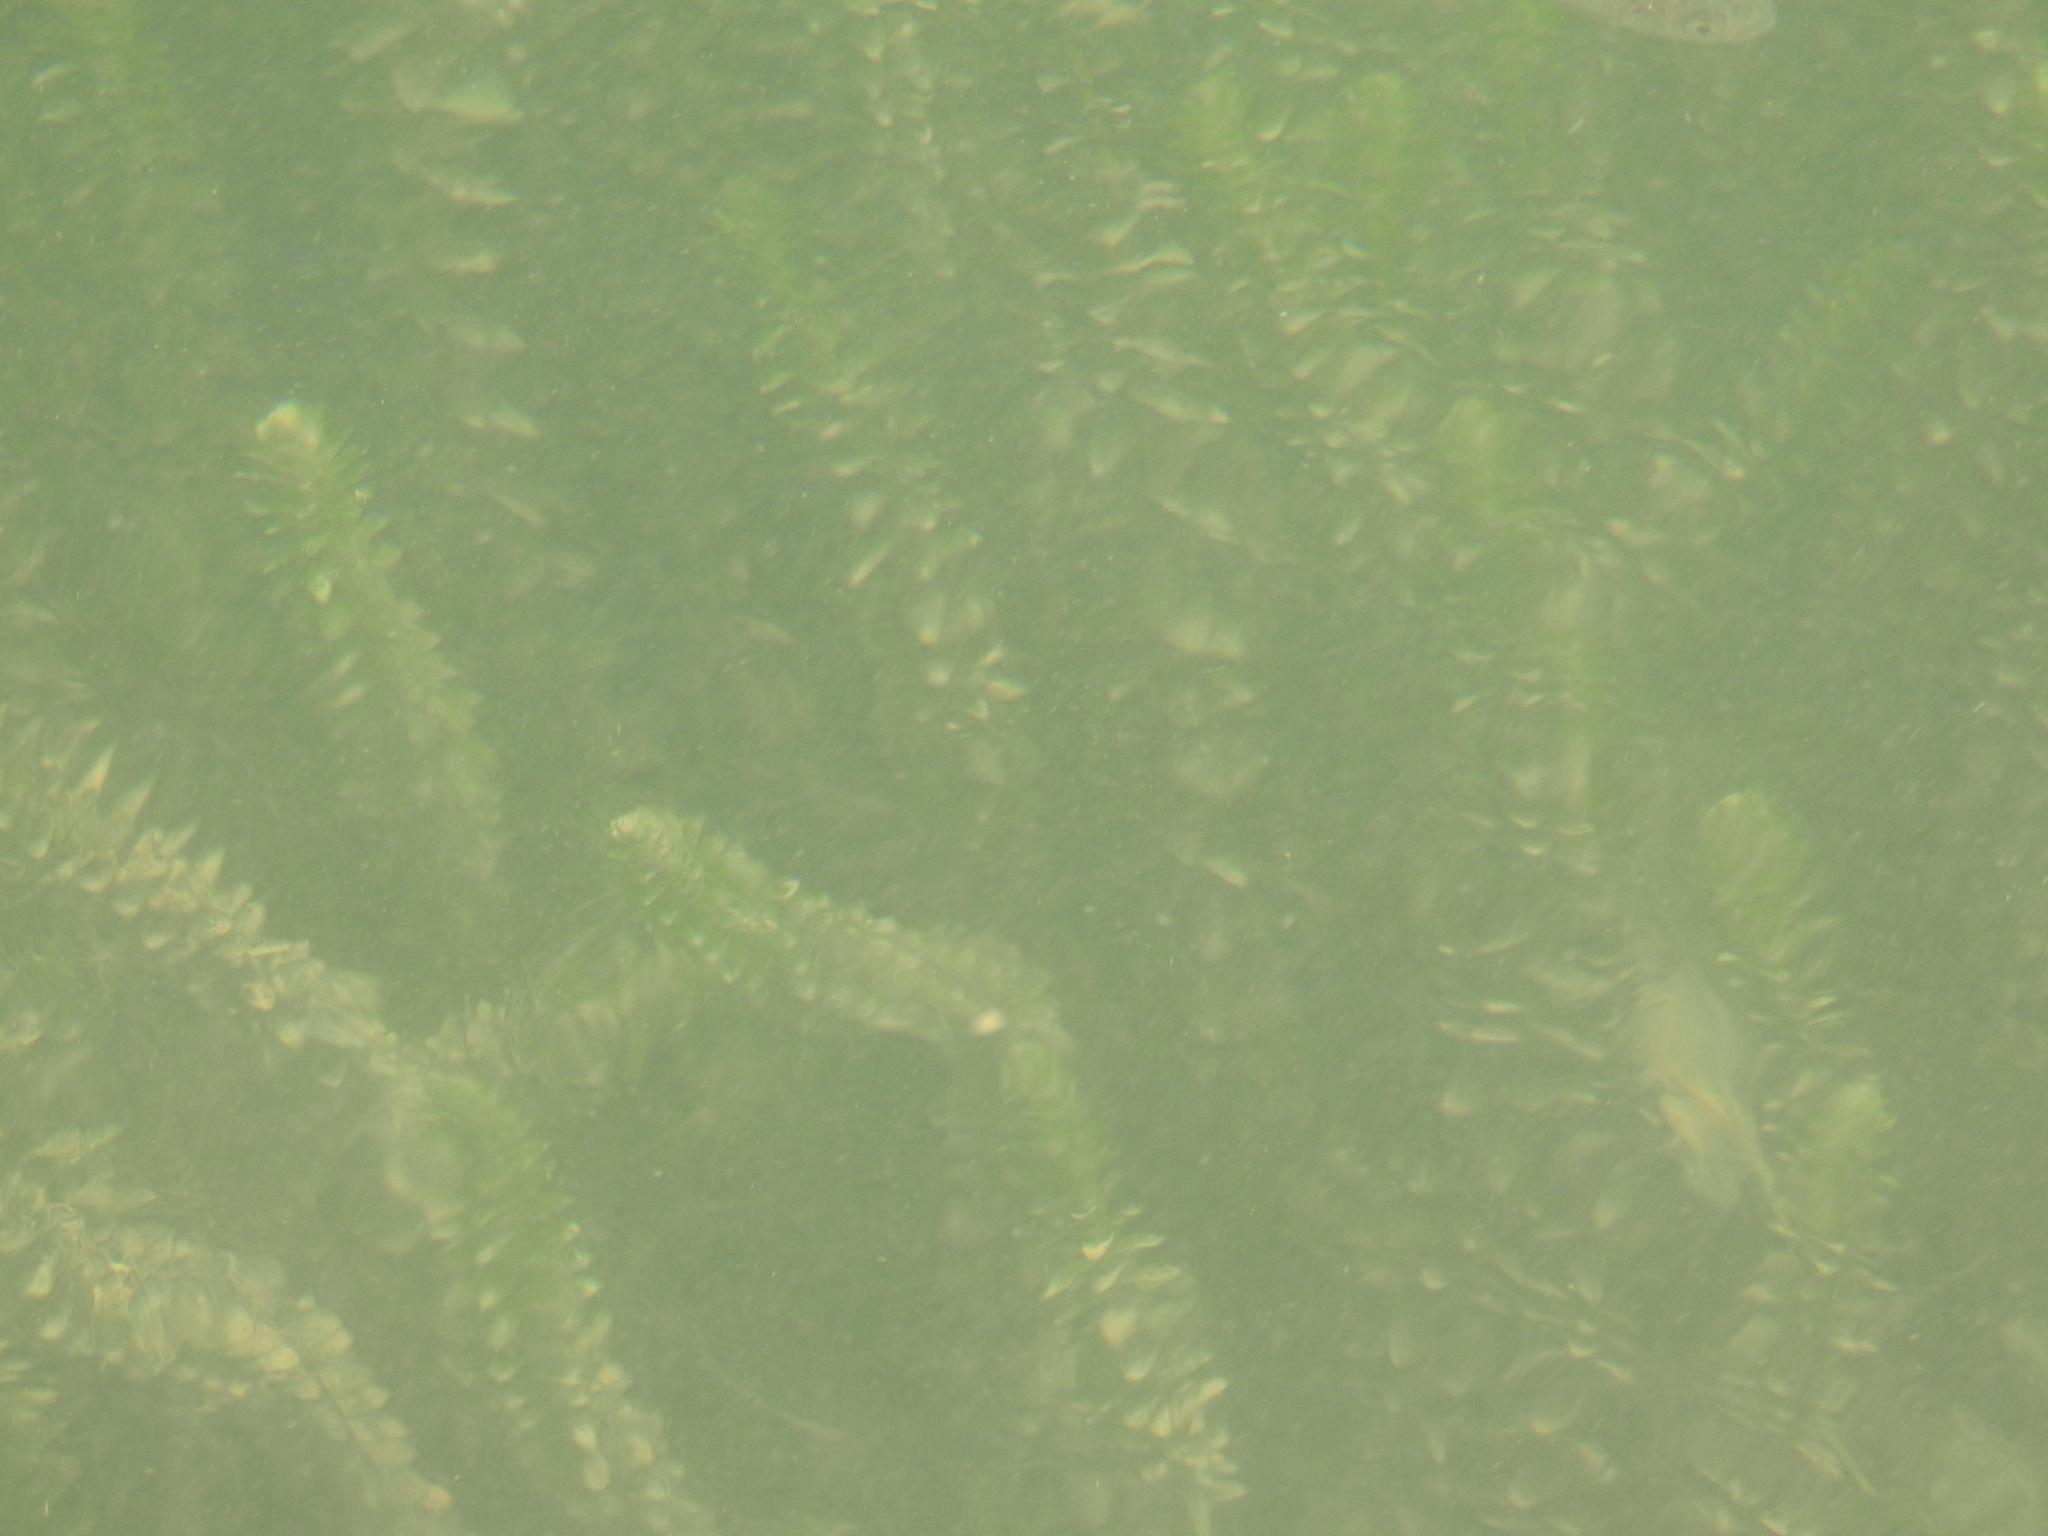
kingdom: Plantae
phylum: Tracheophyta
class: Liliopsida
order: Alismatales
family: Hydrocharitaceae
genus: Elodea
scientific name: Elodea canadensis
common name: Canadian waterweed
